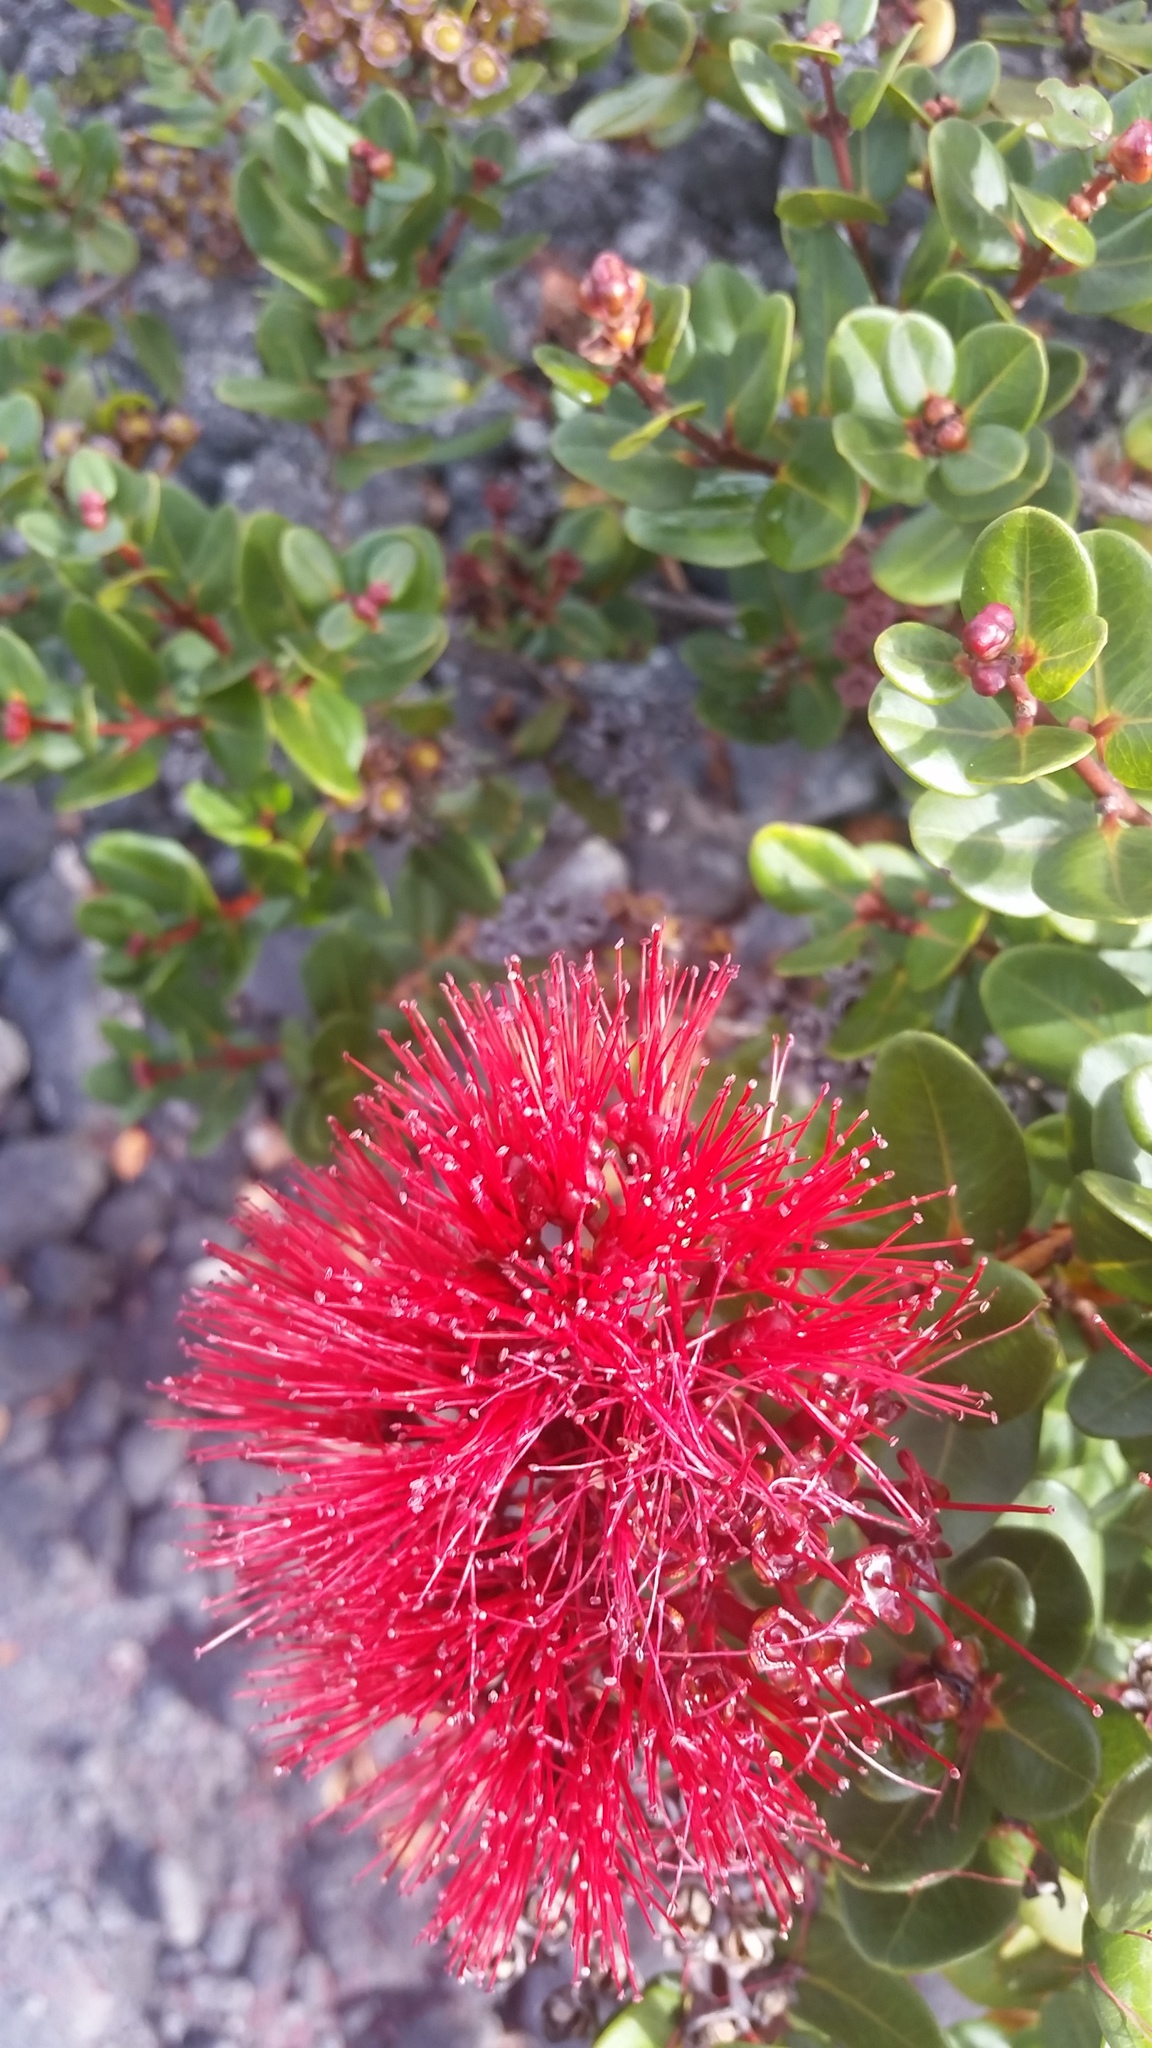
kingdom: Plantae
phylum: Tracheophyta
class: Magnoliopsida
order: Myrtales
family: Myrtaceae
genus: Metrosideros
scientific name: Metrosideros polymorpha
